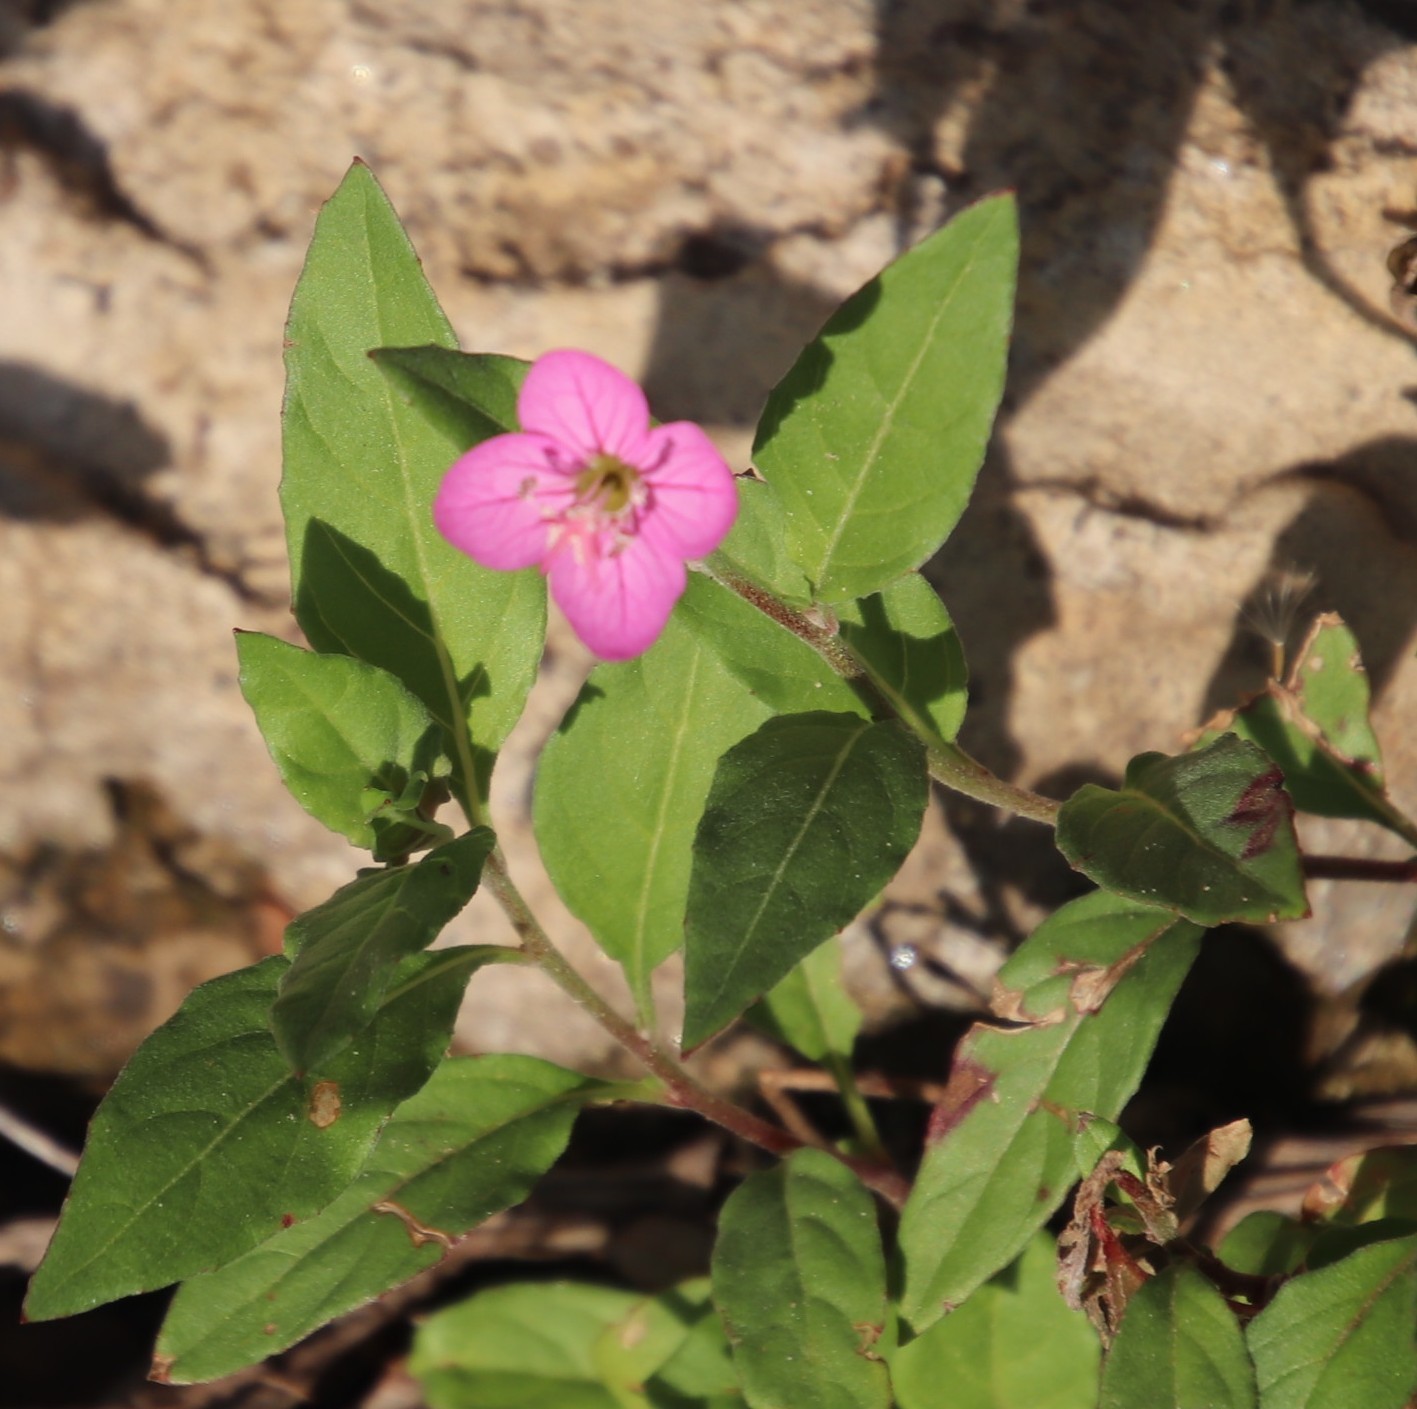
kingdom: Plantae
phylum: Tracheophyta
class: Magnoliopsida
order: Myrtales
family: Onagraceae
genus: Oenothera
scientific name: Oenothera rosea
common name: Rosy evening-primrose
